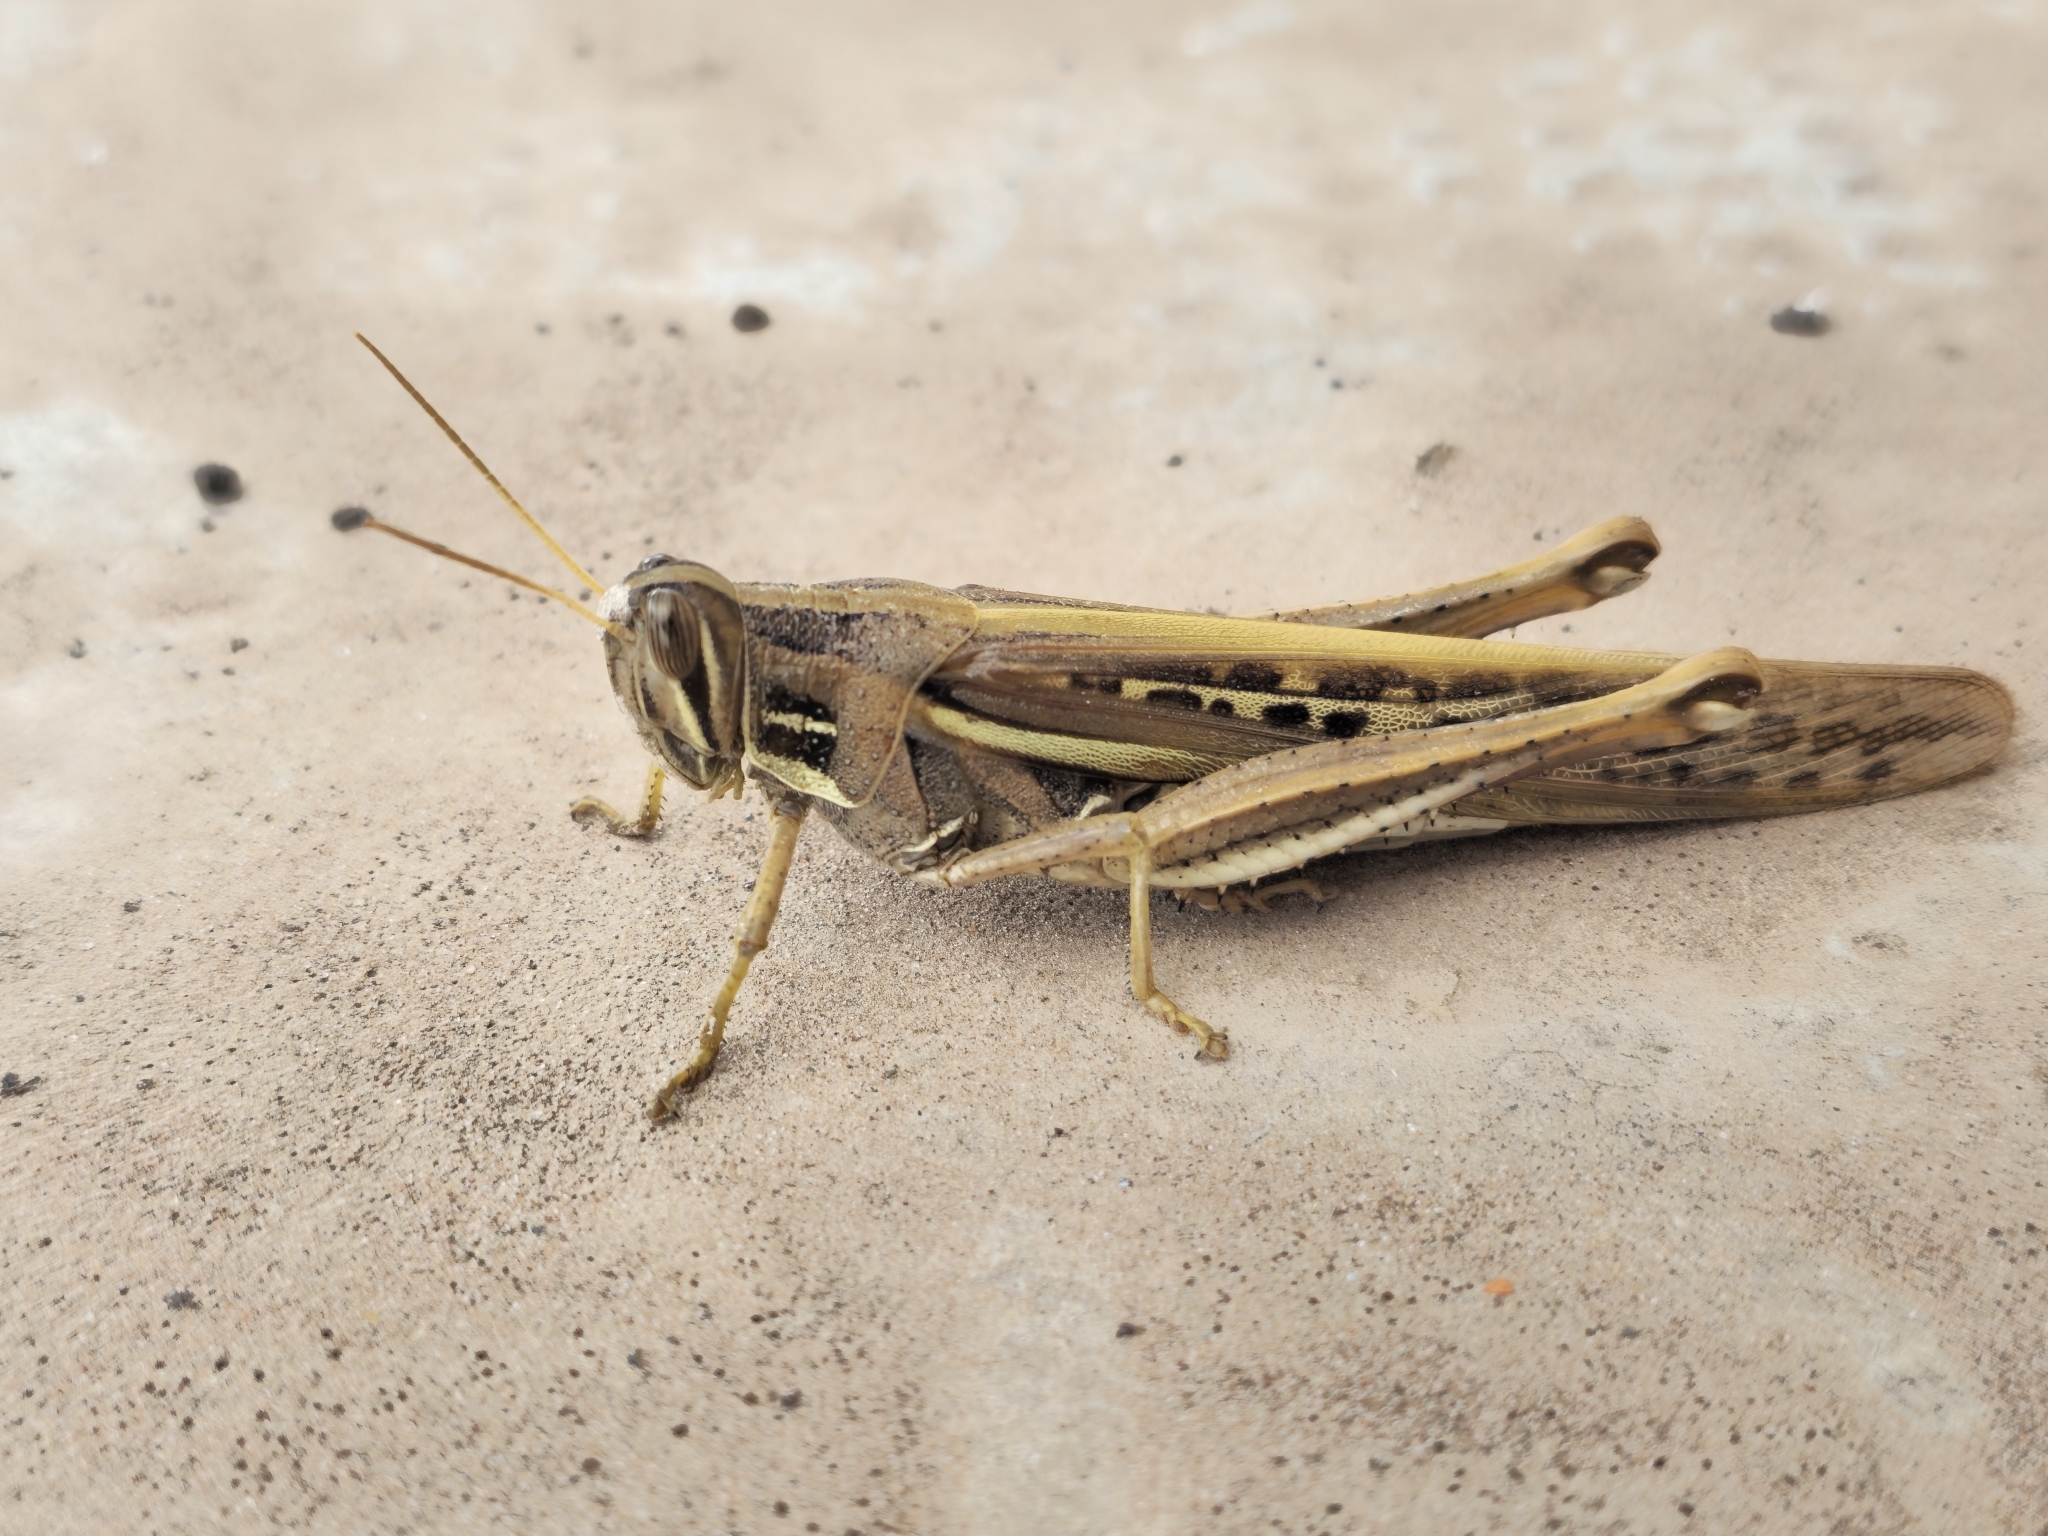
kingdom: Animalia
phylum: Arthropoda
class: Insecta
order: Orthoptera
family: Acrididae
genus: Schistocerca
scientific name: Schistocerca cancellata
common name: South american locust
